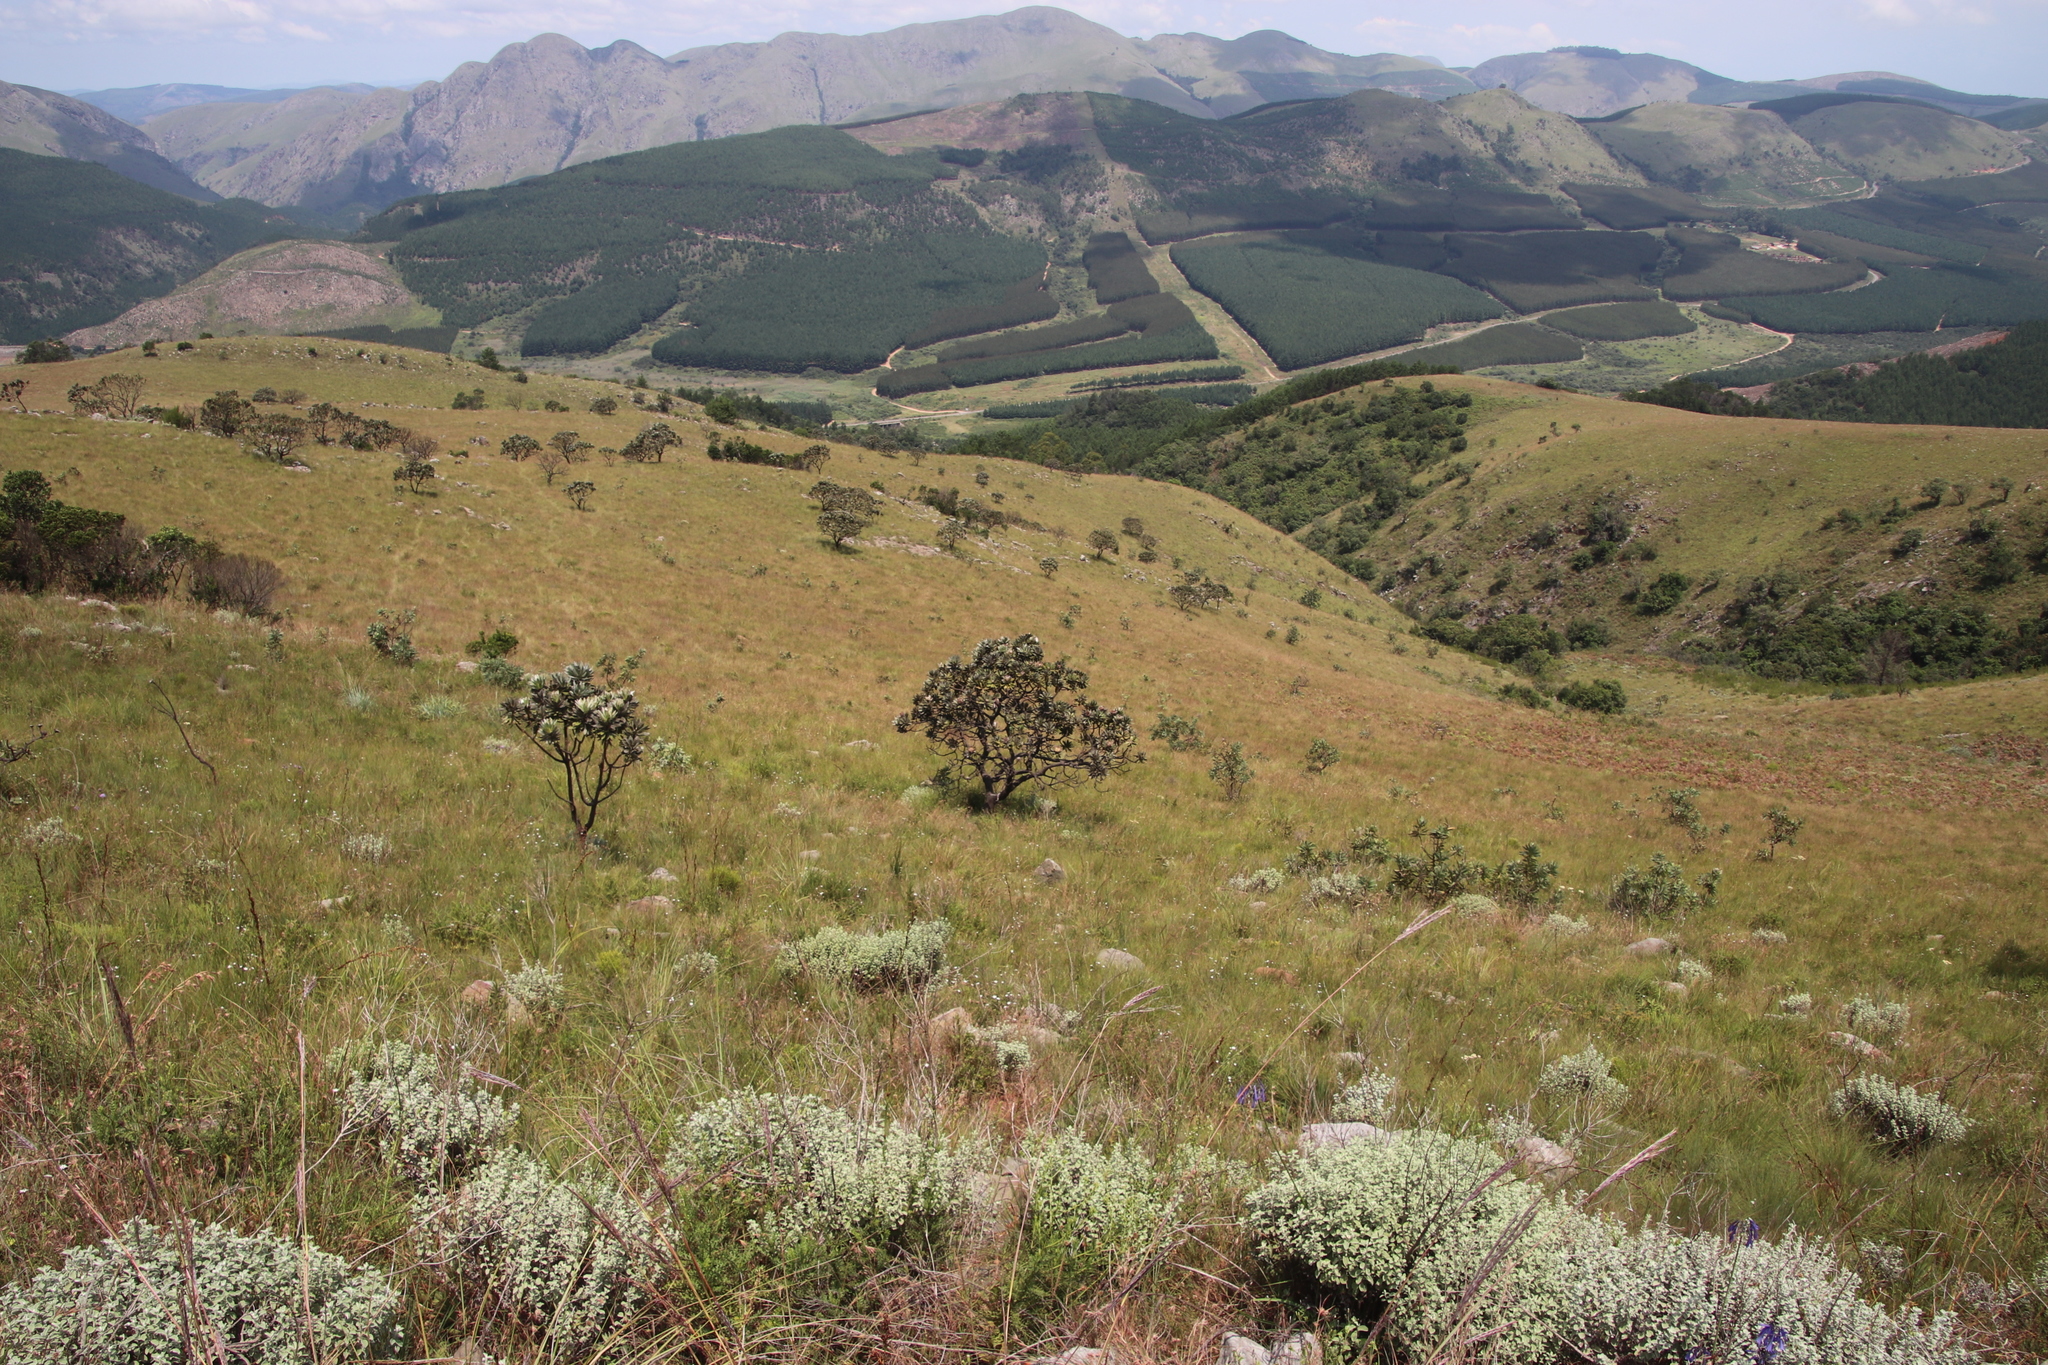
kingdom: Plantae
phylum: Tracheophyta
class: Magnoliopsida
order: Proteales
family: Proteaceae
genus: Protea
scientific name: Protea roupelliae
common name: Silver sugarbush
